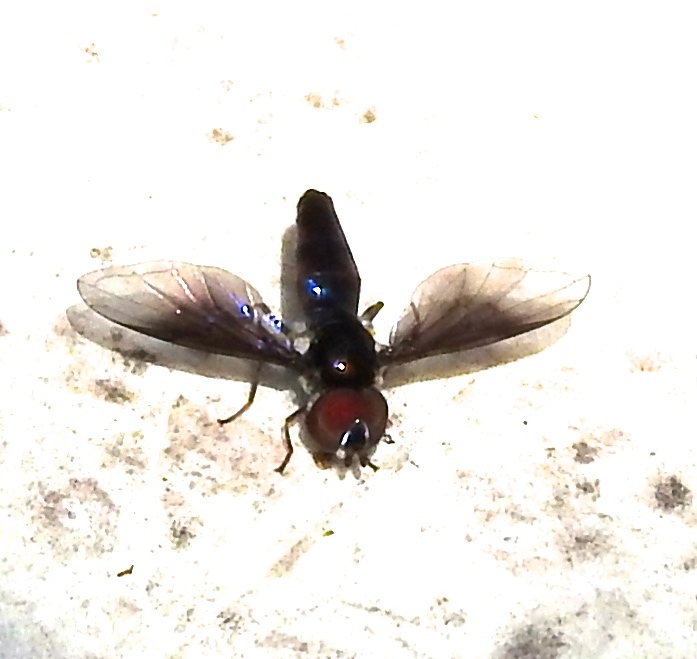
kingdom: Animalia
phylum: Arthropoda
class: Insecta
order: Diptera
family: Syrphidae
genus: Ocyptamus
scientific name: Ocyptamus
